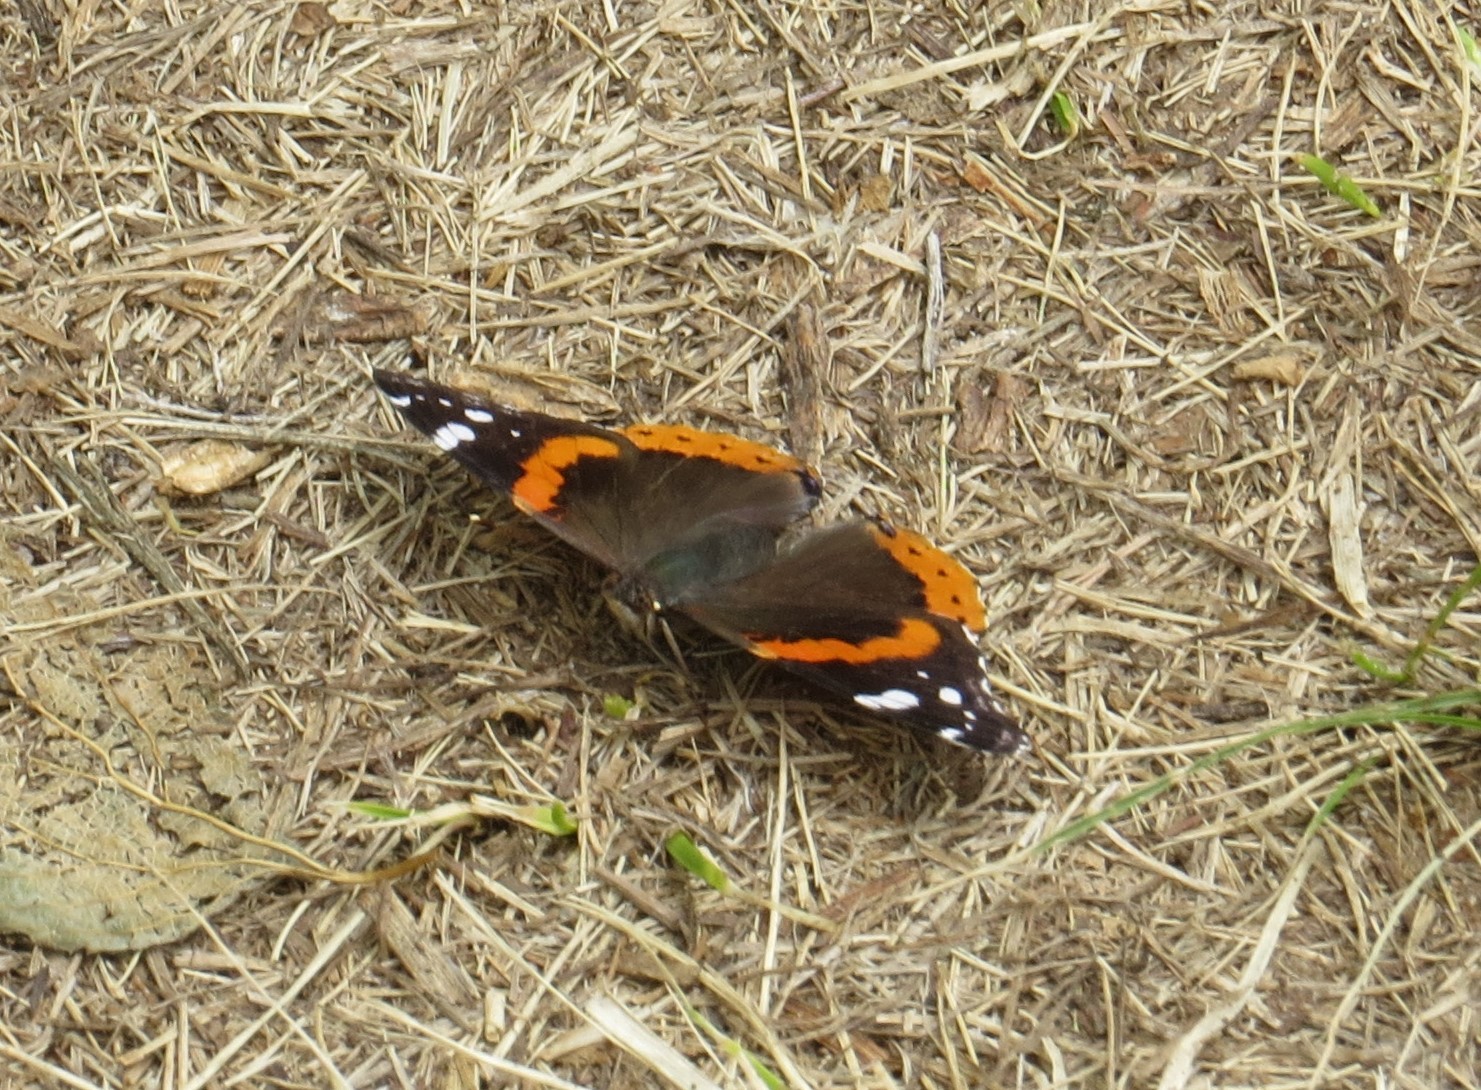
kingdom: Animalia
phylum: Arthropoda
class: Insecta
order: Lepidoptera
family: Nymphalidae
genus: Vanessa
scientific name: Vanessa atalanta
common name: Red admiral
